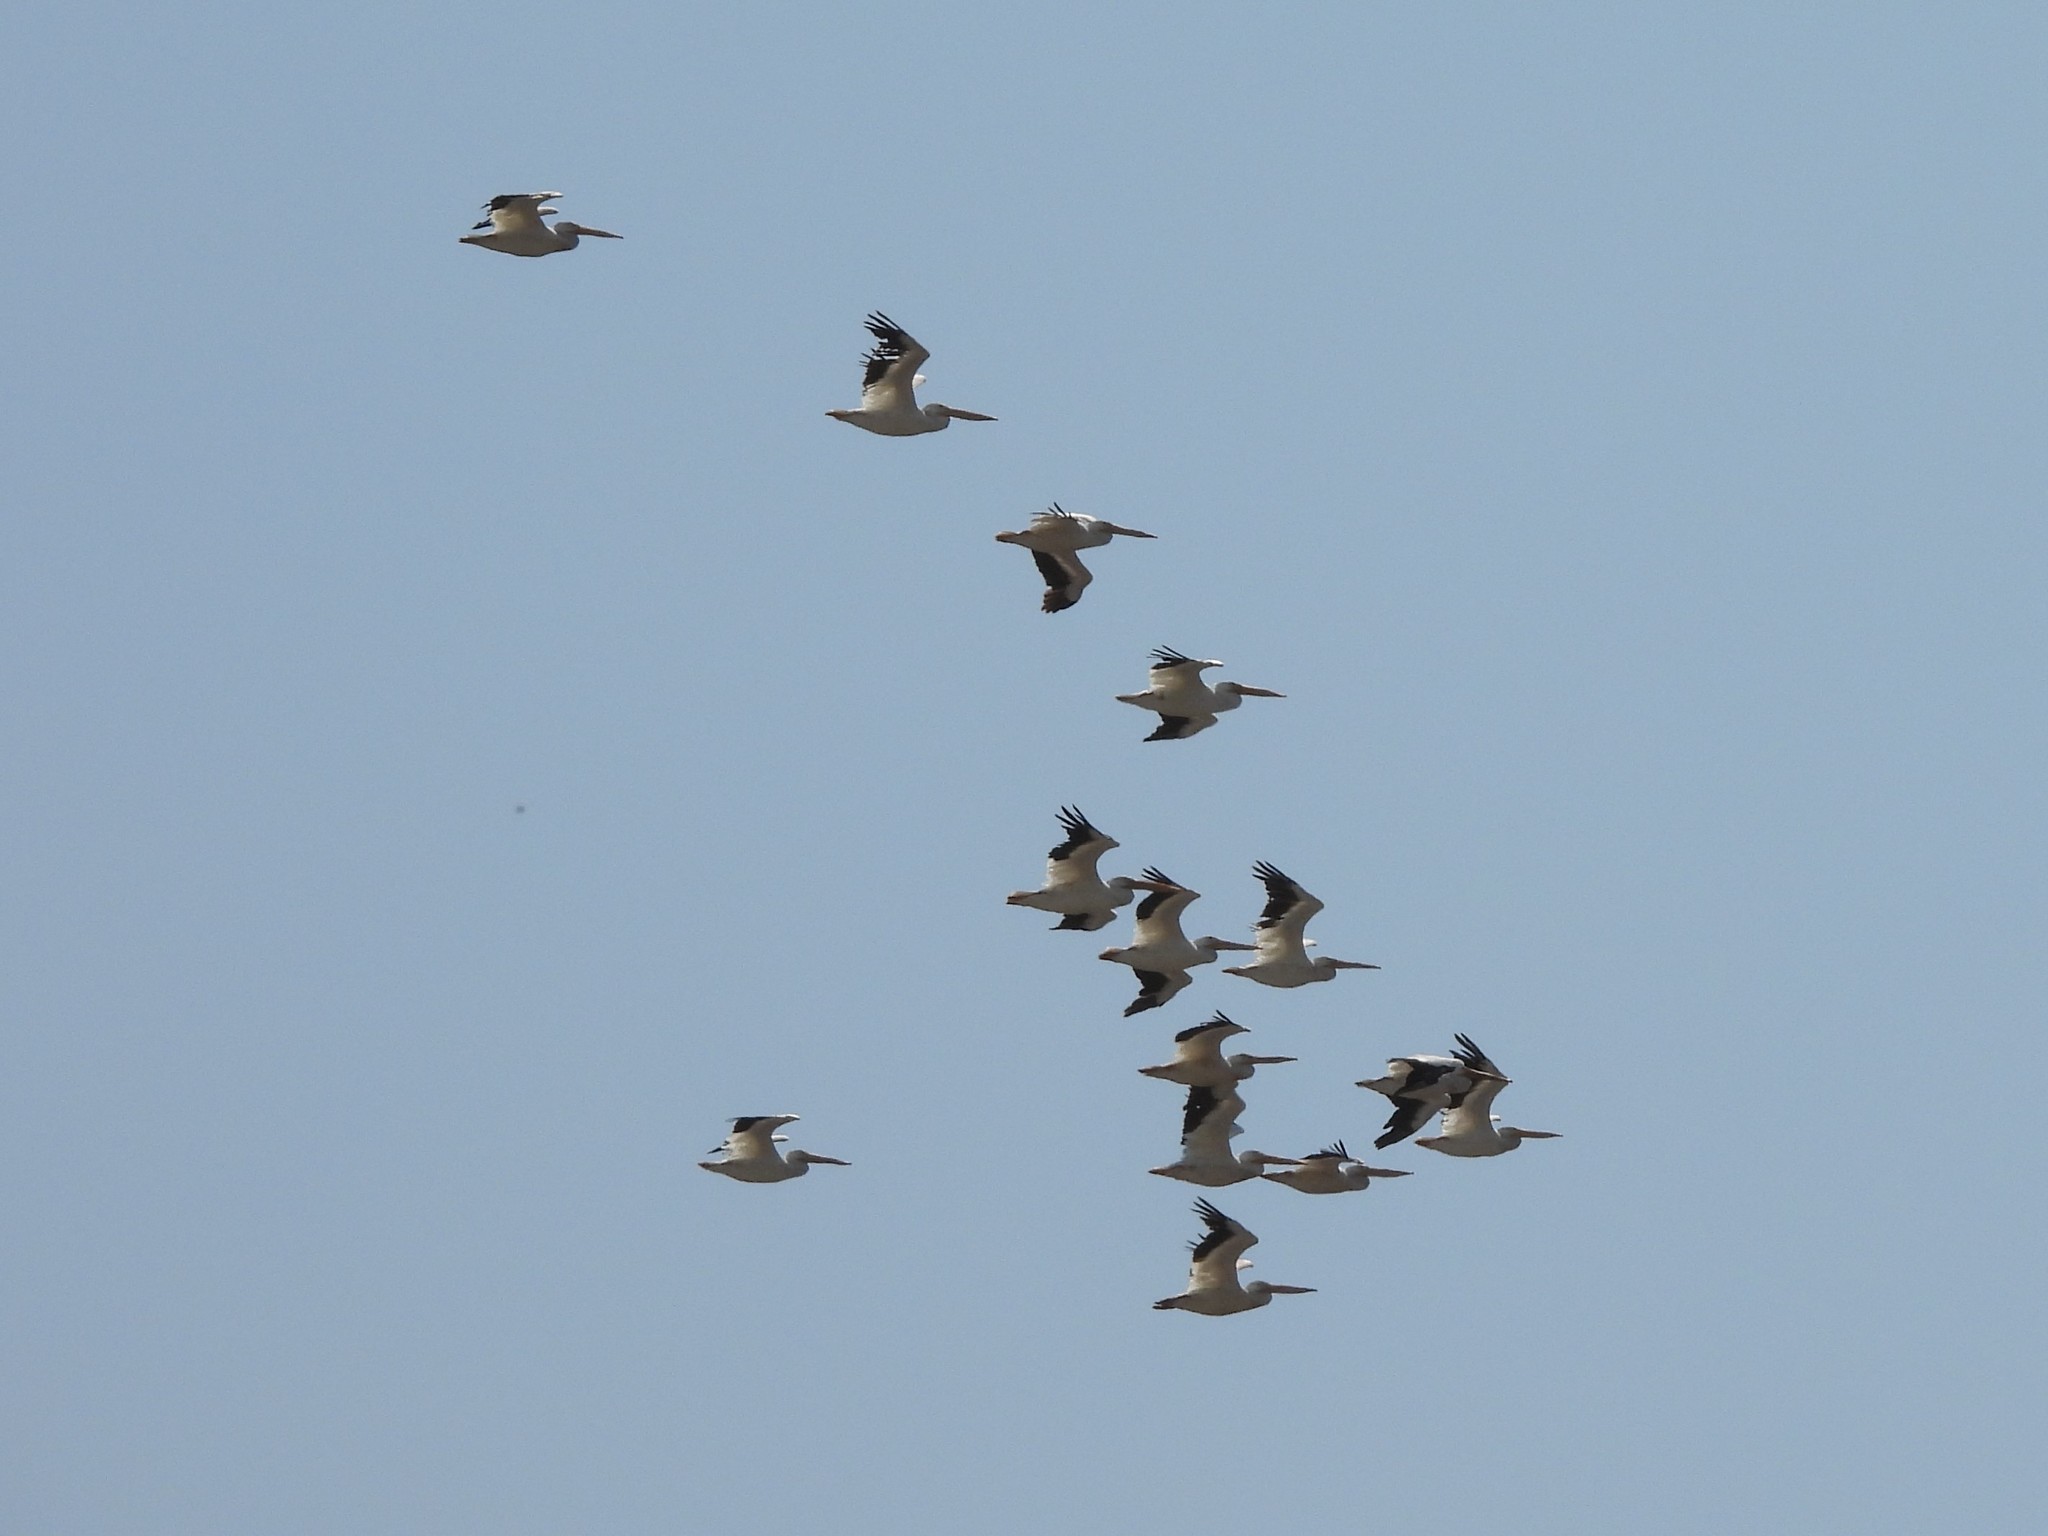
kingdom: Animalia
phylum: Chordata
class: Aves
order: Pelecaniformes
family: Pelecanidae
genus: Pelecanus
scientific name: Pelecanus erythrorhynchos
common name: American white pelican
